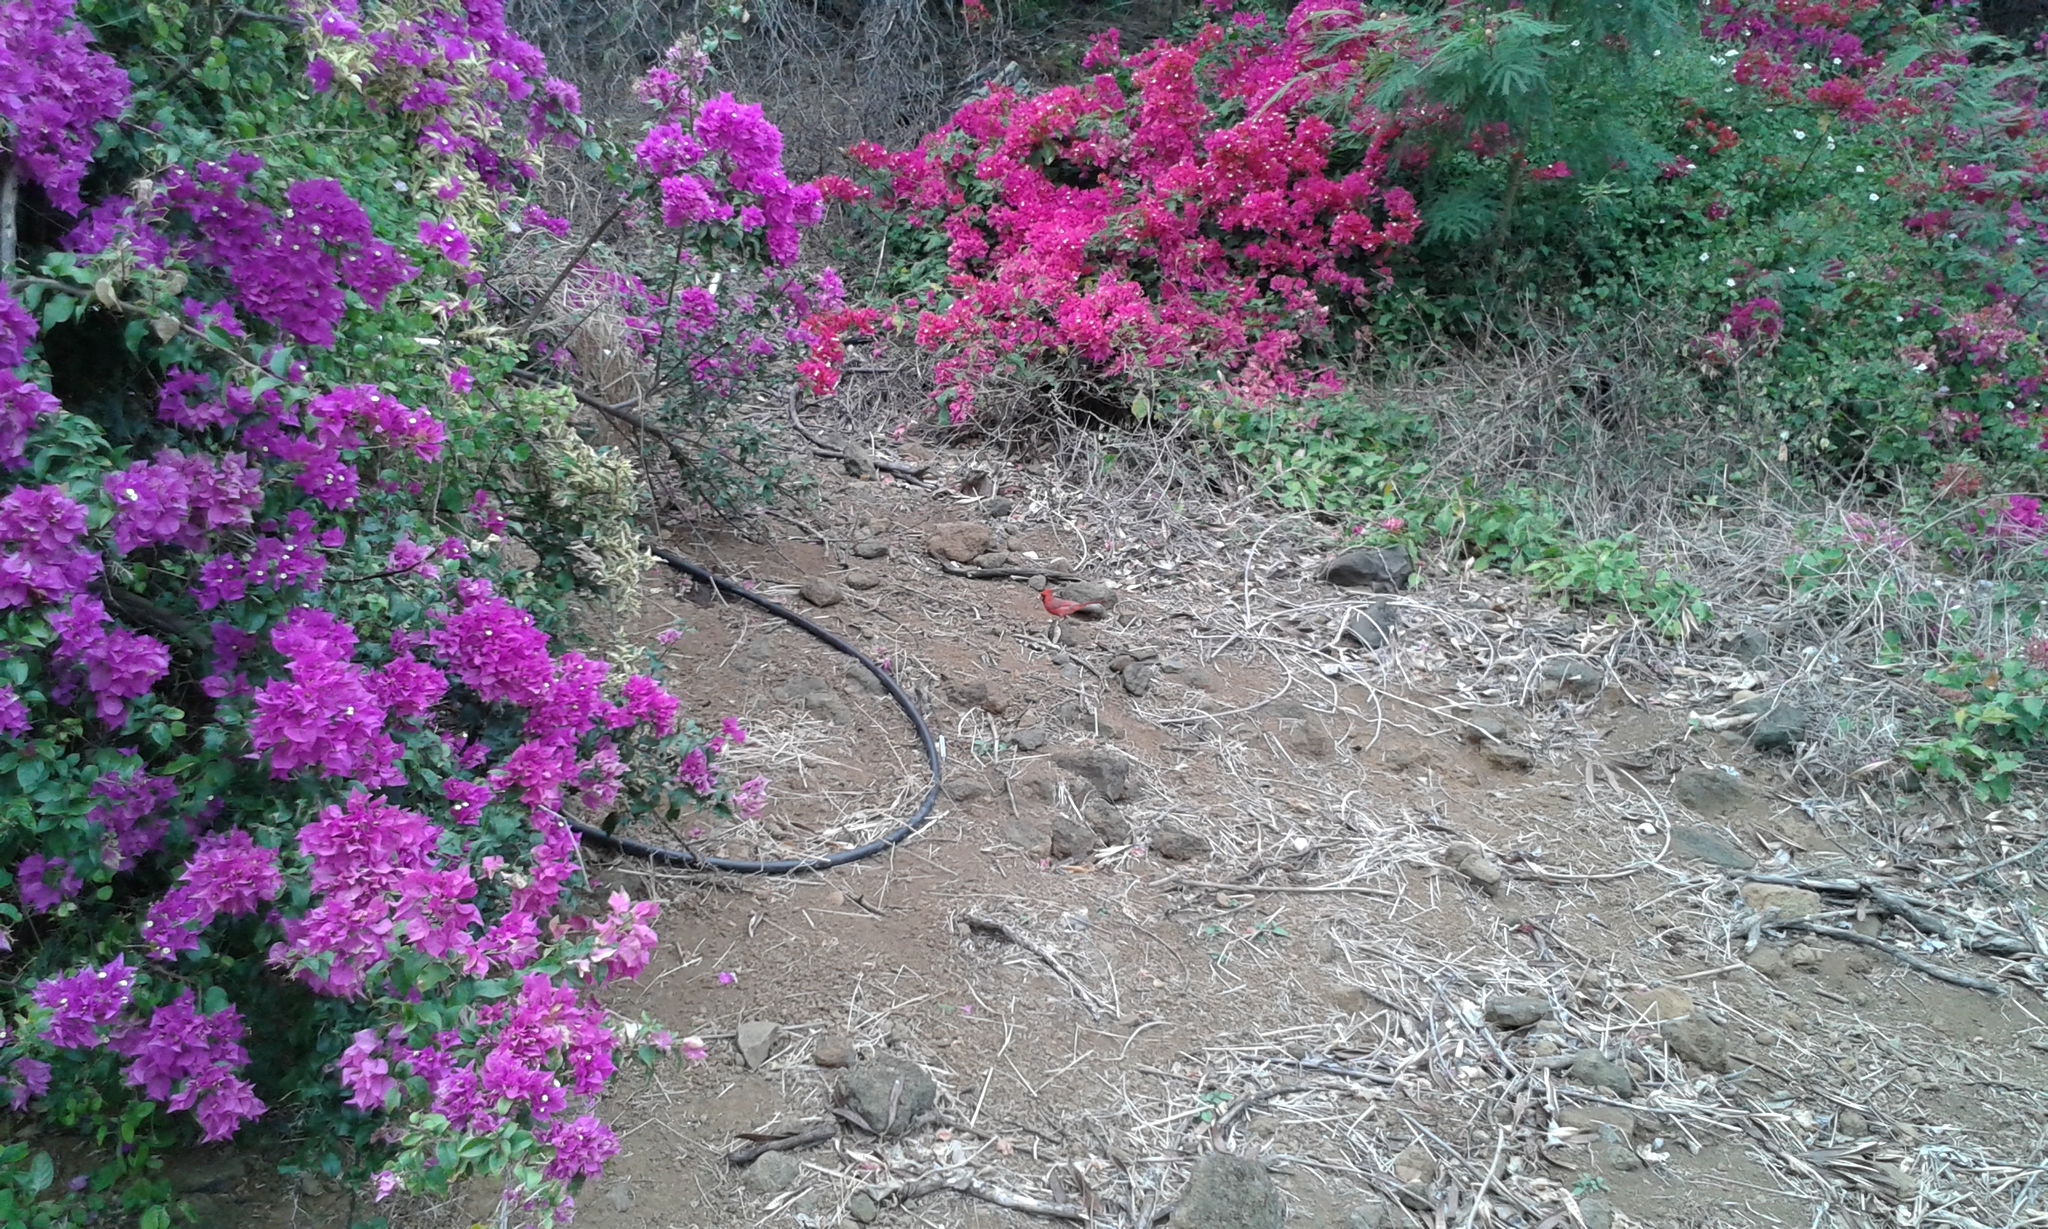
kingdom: Animalia
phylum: Chordata
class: Aves
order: Passeriformes
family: Cardinalidae
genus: Cardinalis
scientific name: Cardinalis cardinalis
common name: Northern cardinal
